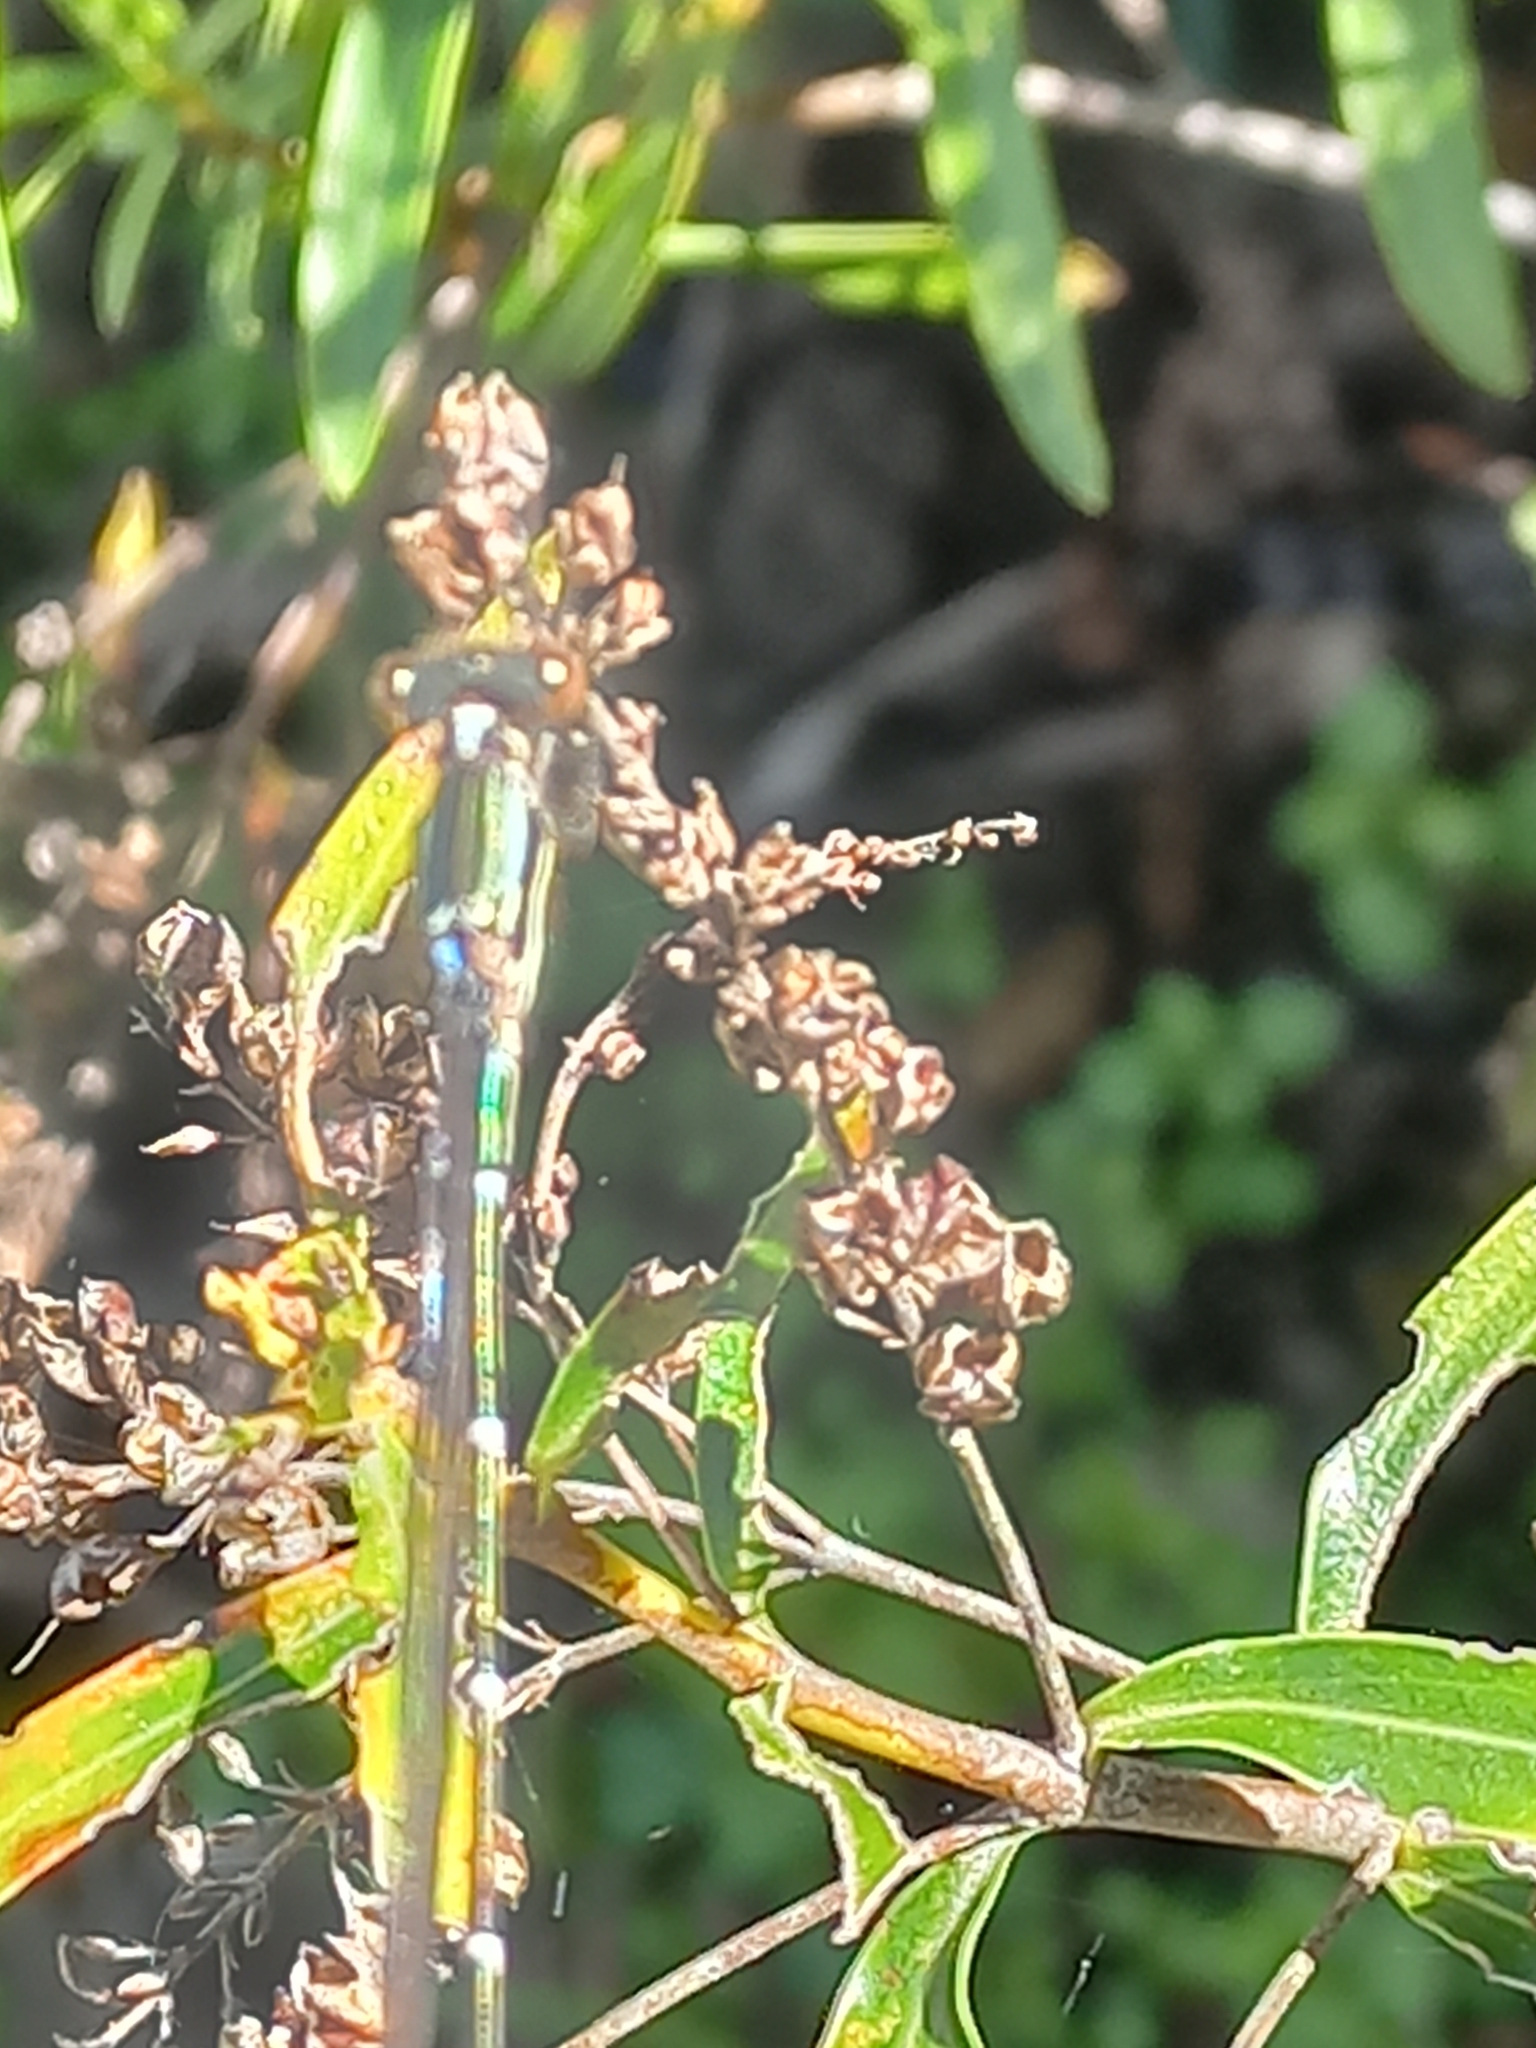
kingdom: Animalia
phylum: Arthropoda
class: Insecta
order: Odonata
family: Lestidae
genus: Austrolestes
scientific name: Austrolestes colensonis
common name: Blue damselfly
